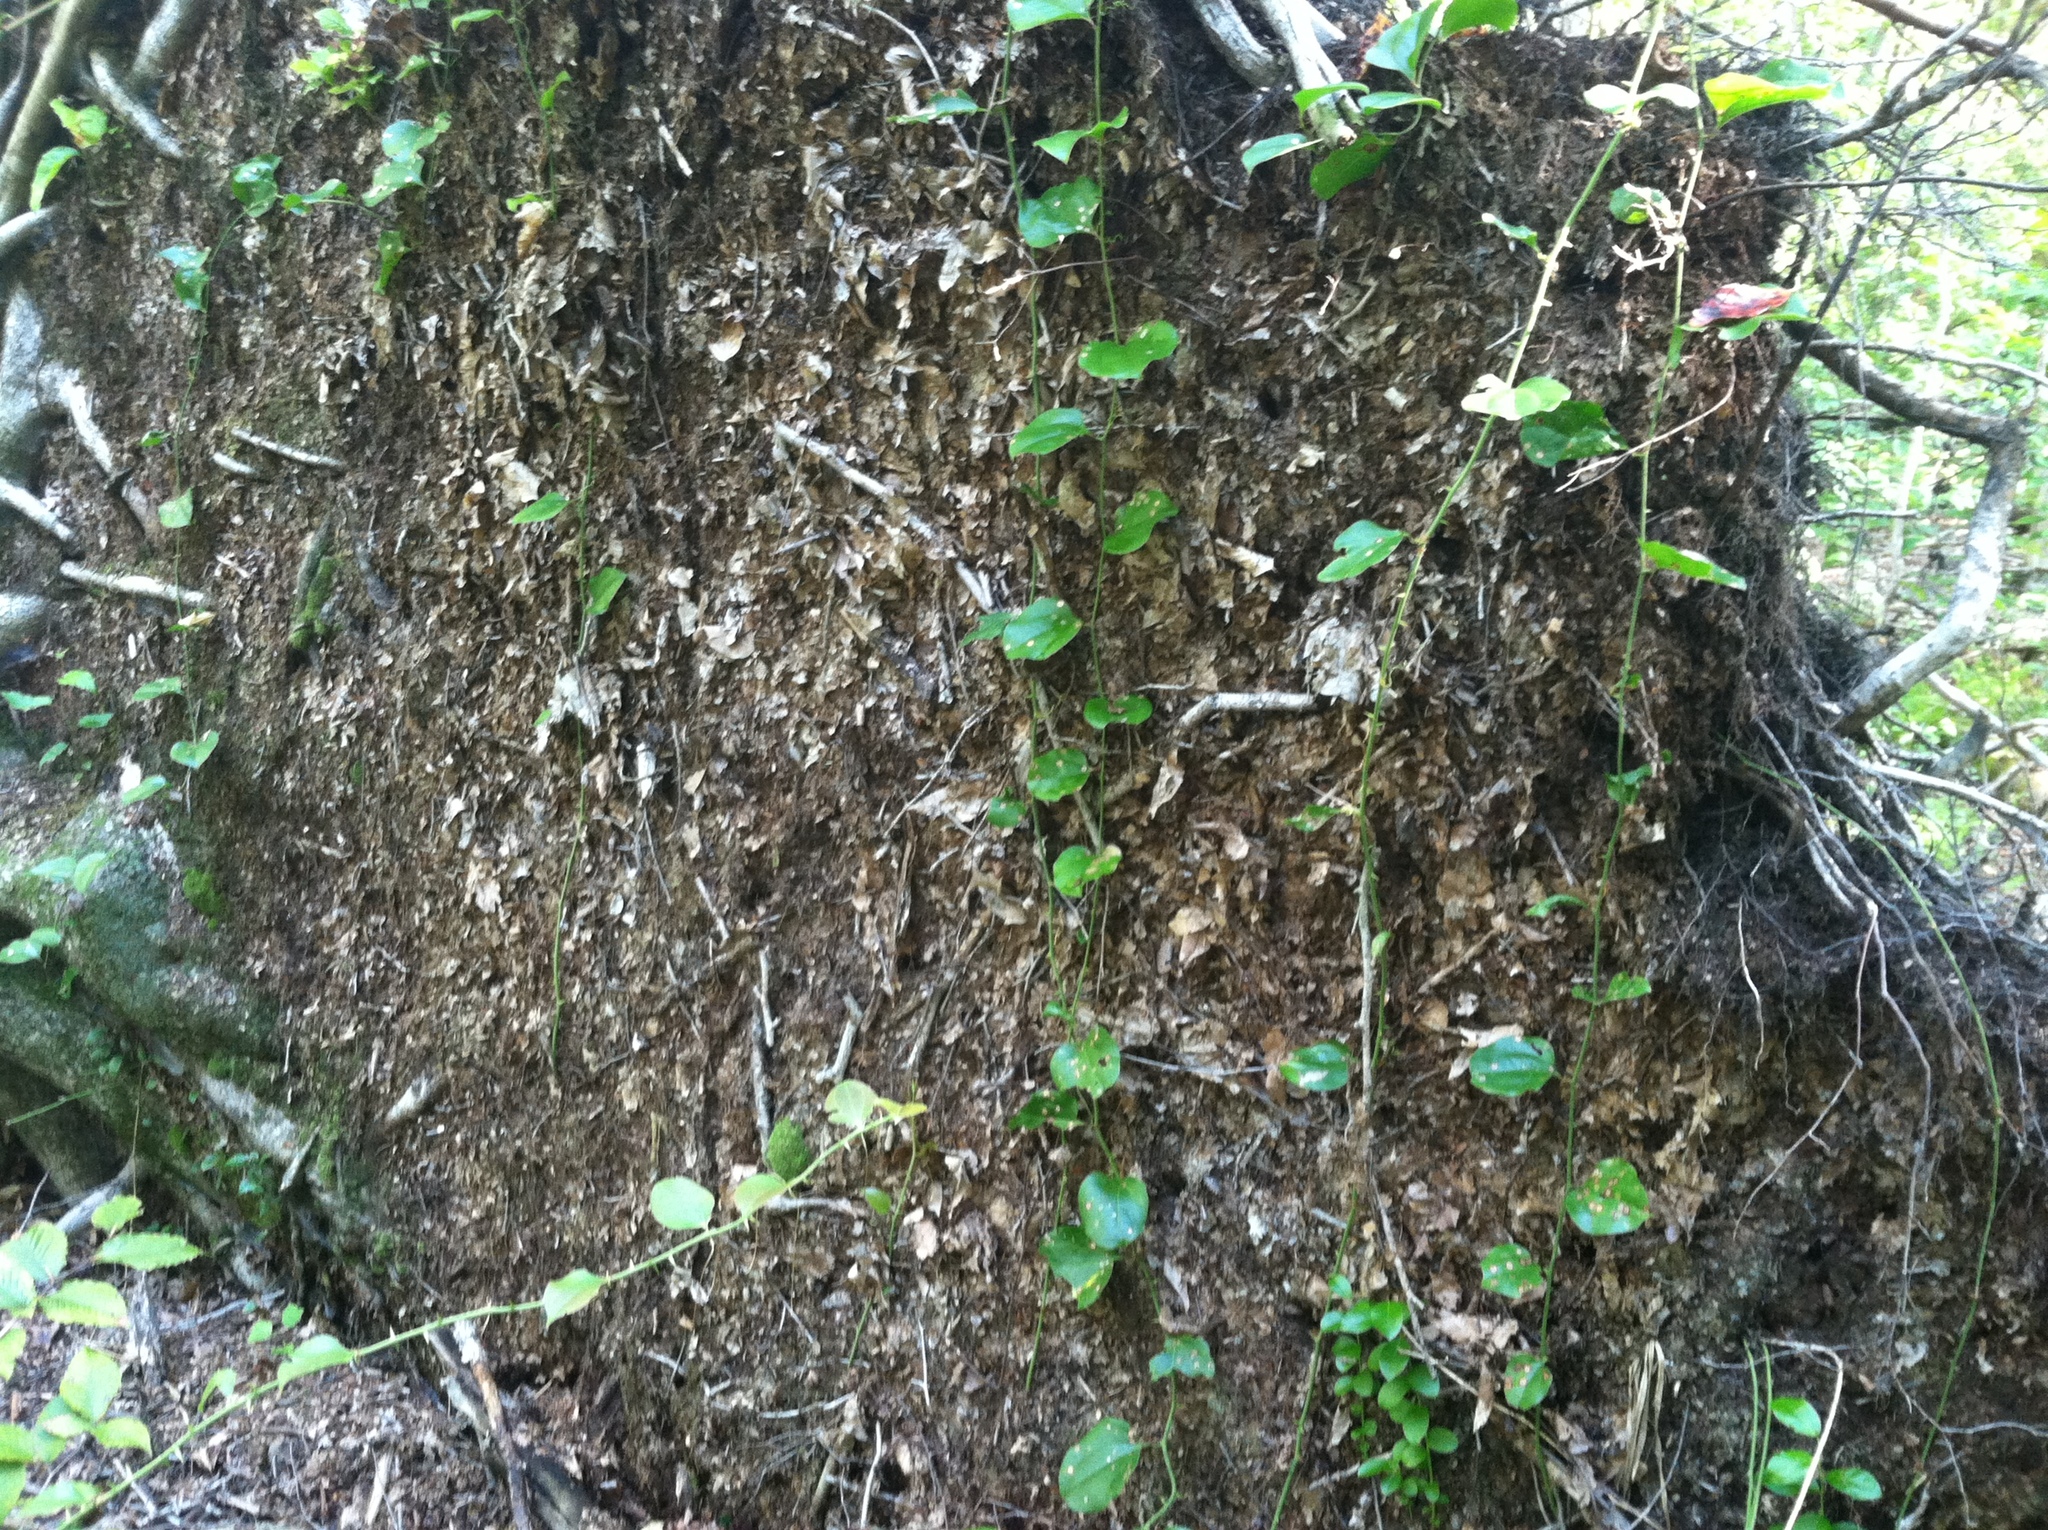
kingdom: Plantae
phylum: Tracheophyta
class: Liliopsida
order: Liliales
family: Smilacaceae
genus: Smilax
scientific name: Smilax rotundifolia
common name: Bullbriar
